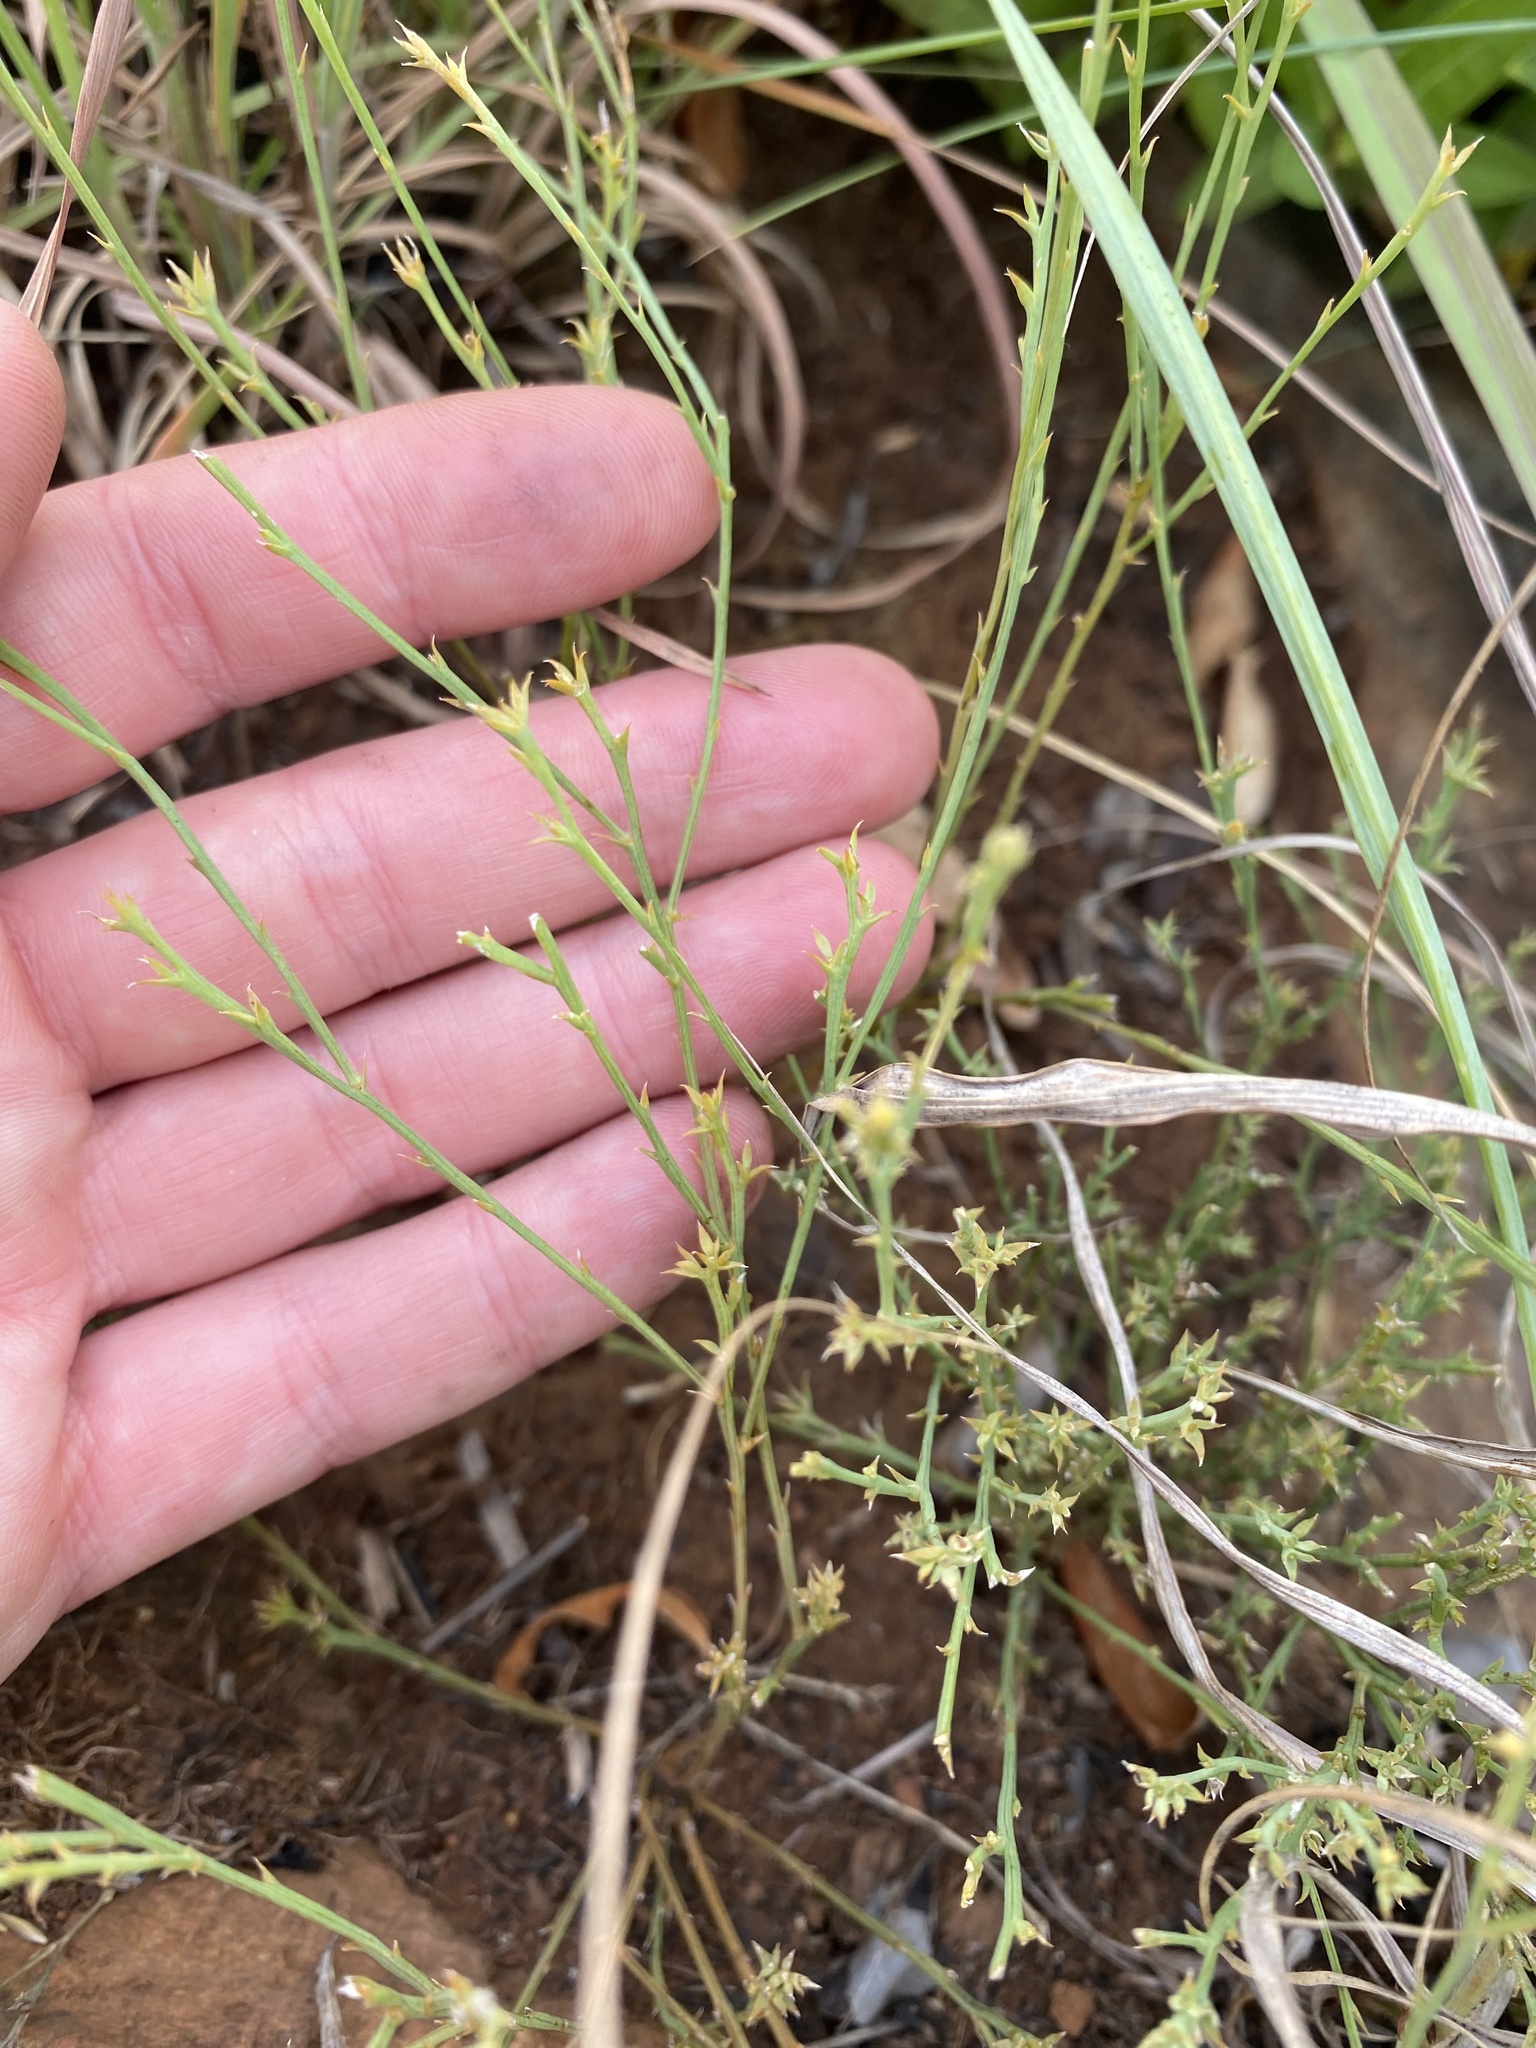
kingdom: Plantae
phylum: Tracheophyta
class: Magnoliopsida
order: Santalales
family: Thesiaceae
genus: Thesium
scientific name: Thesium jeaniae
